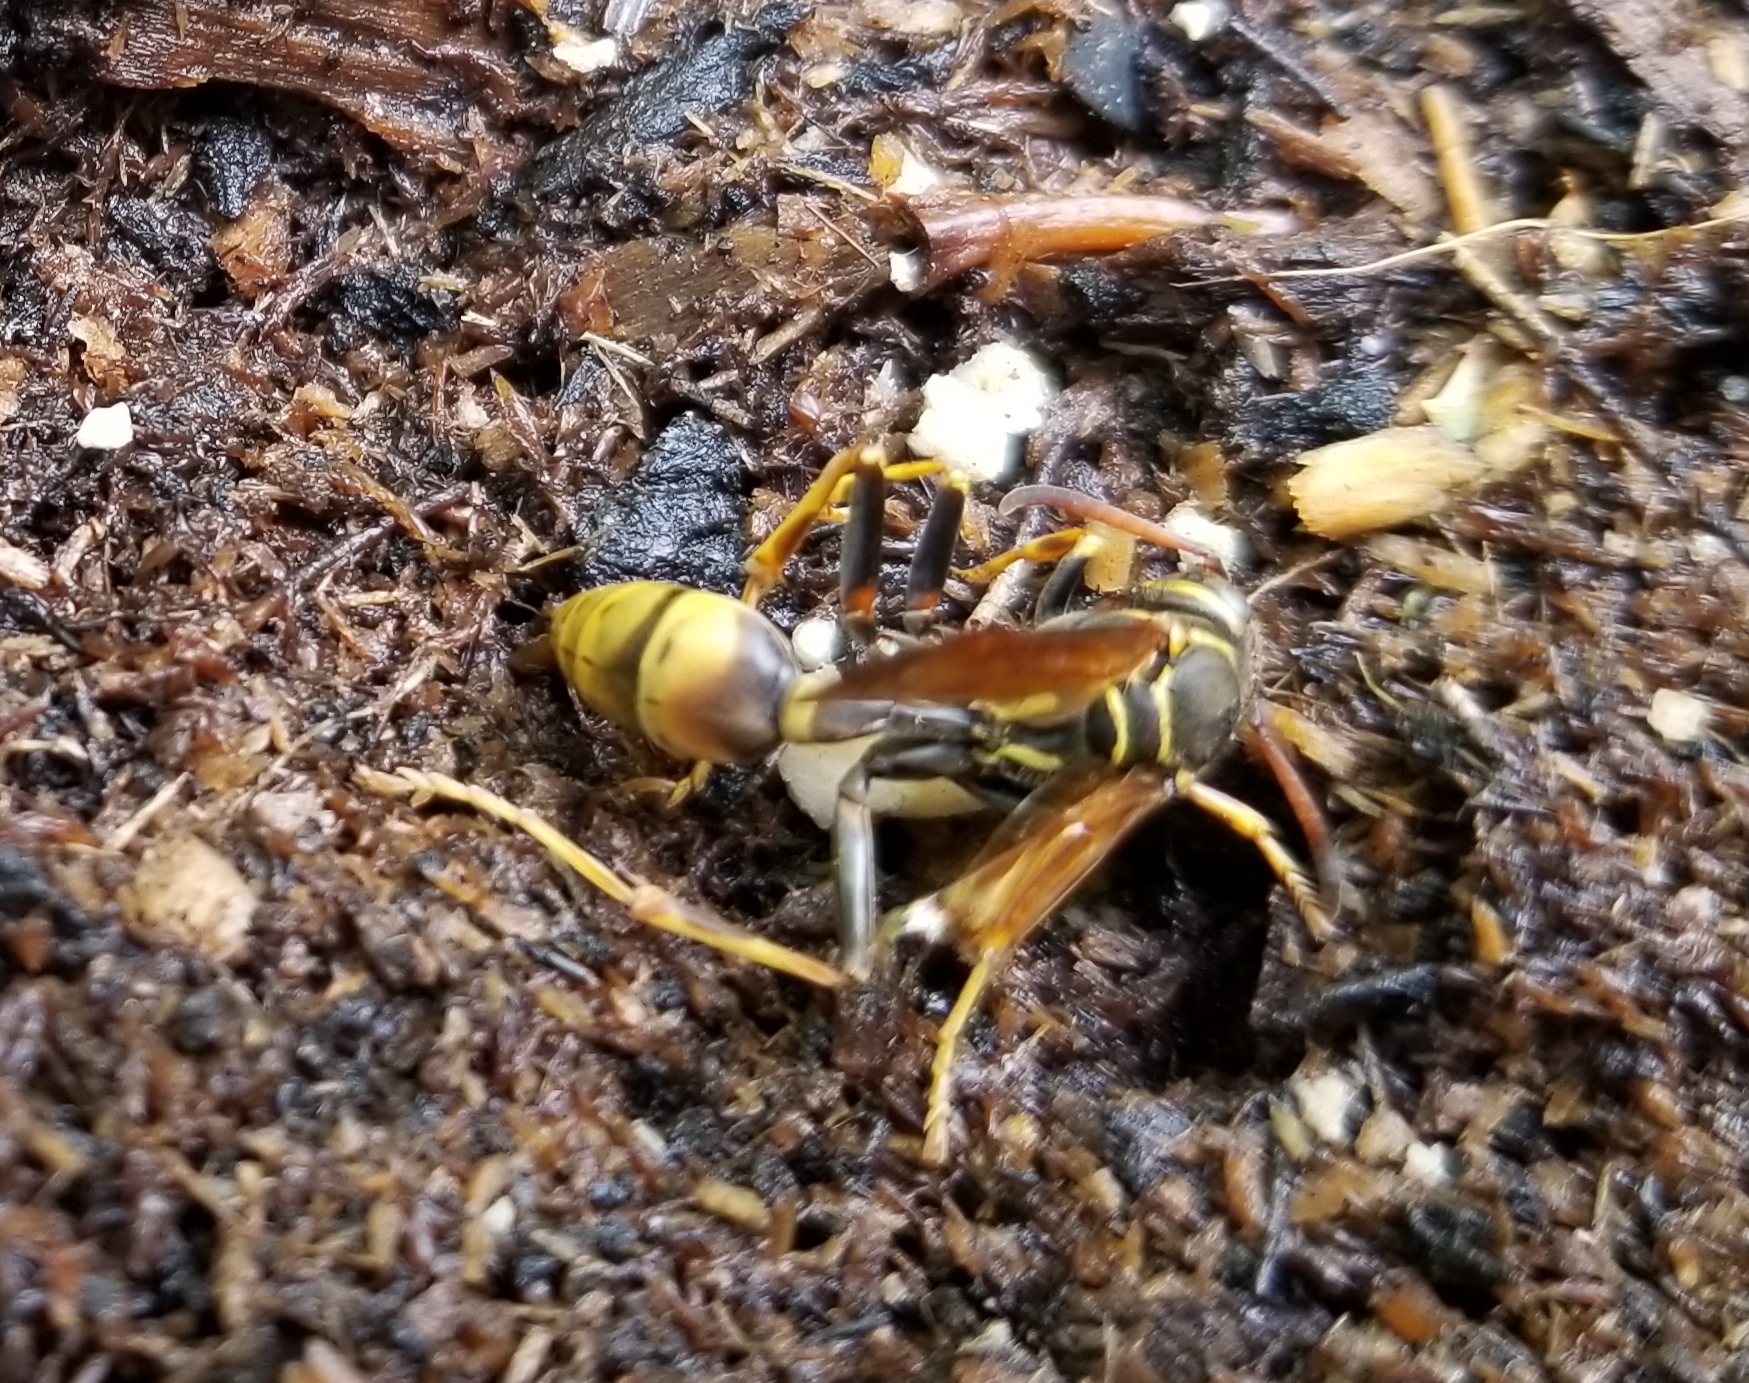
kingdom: Animalia
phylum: Arthropoda
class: Insecta
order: Hymenoptera
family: Vespidae
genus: Mischocyttarus
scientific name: Mischocyttarus flavitarsis
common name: Wasp
